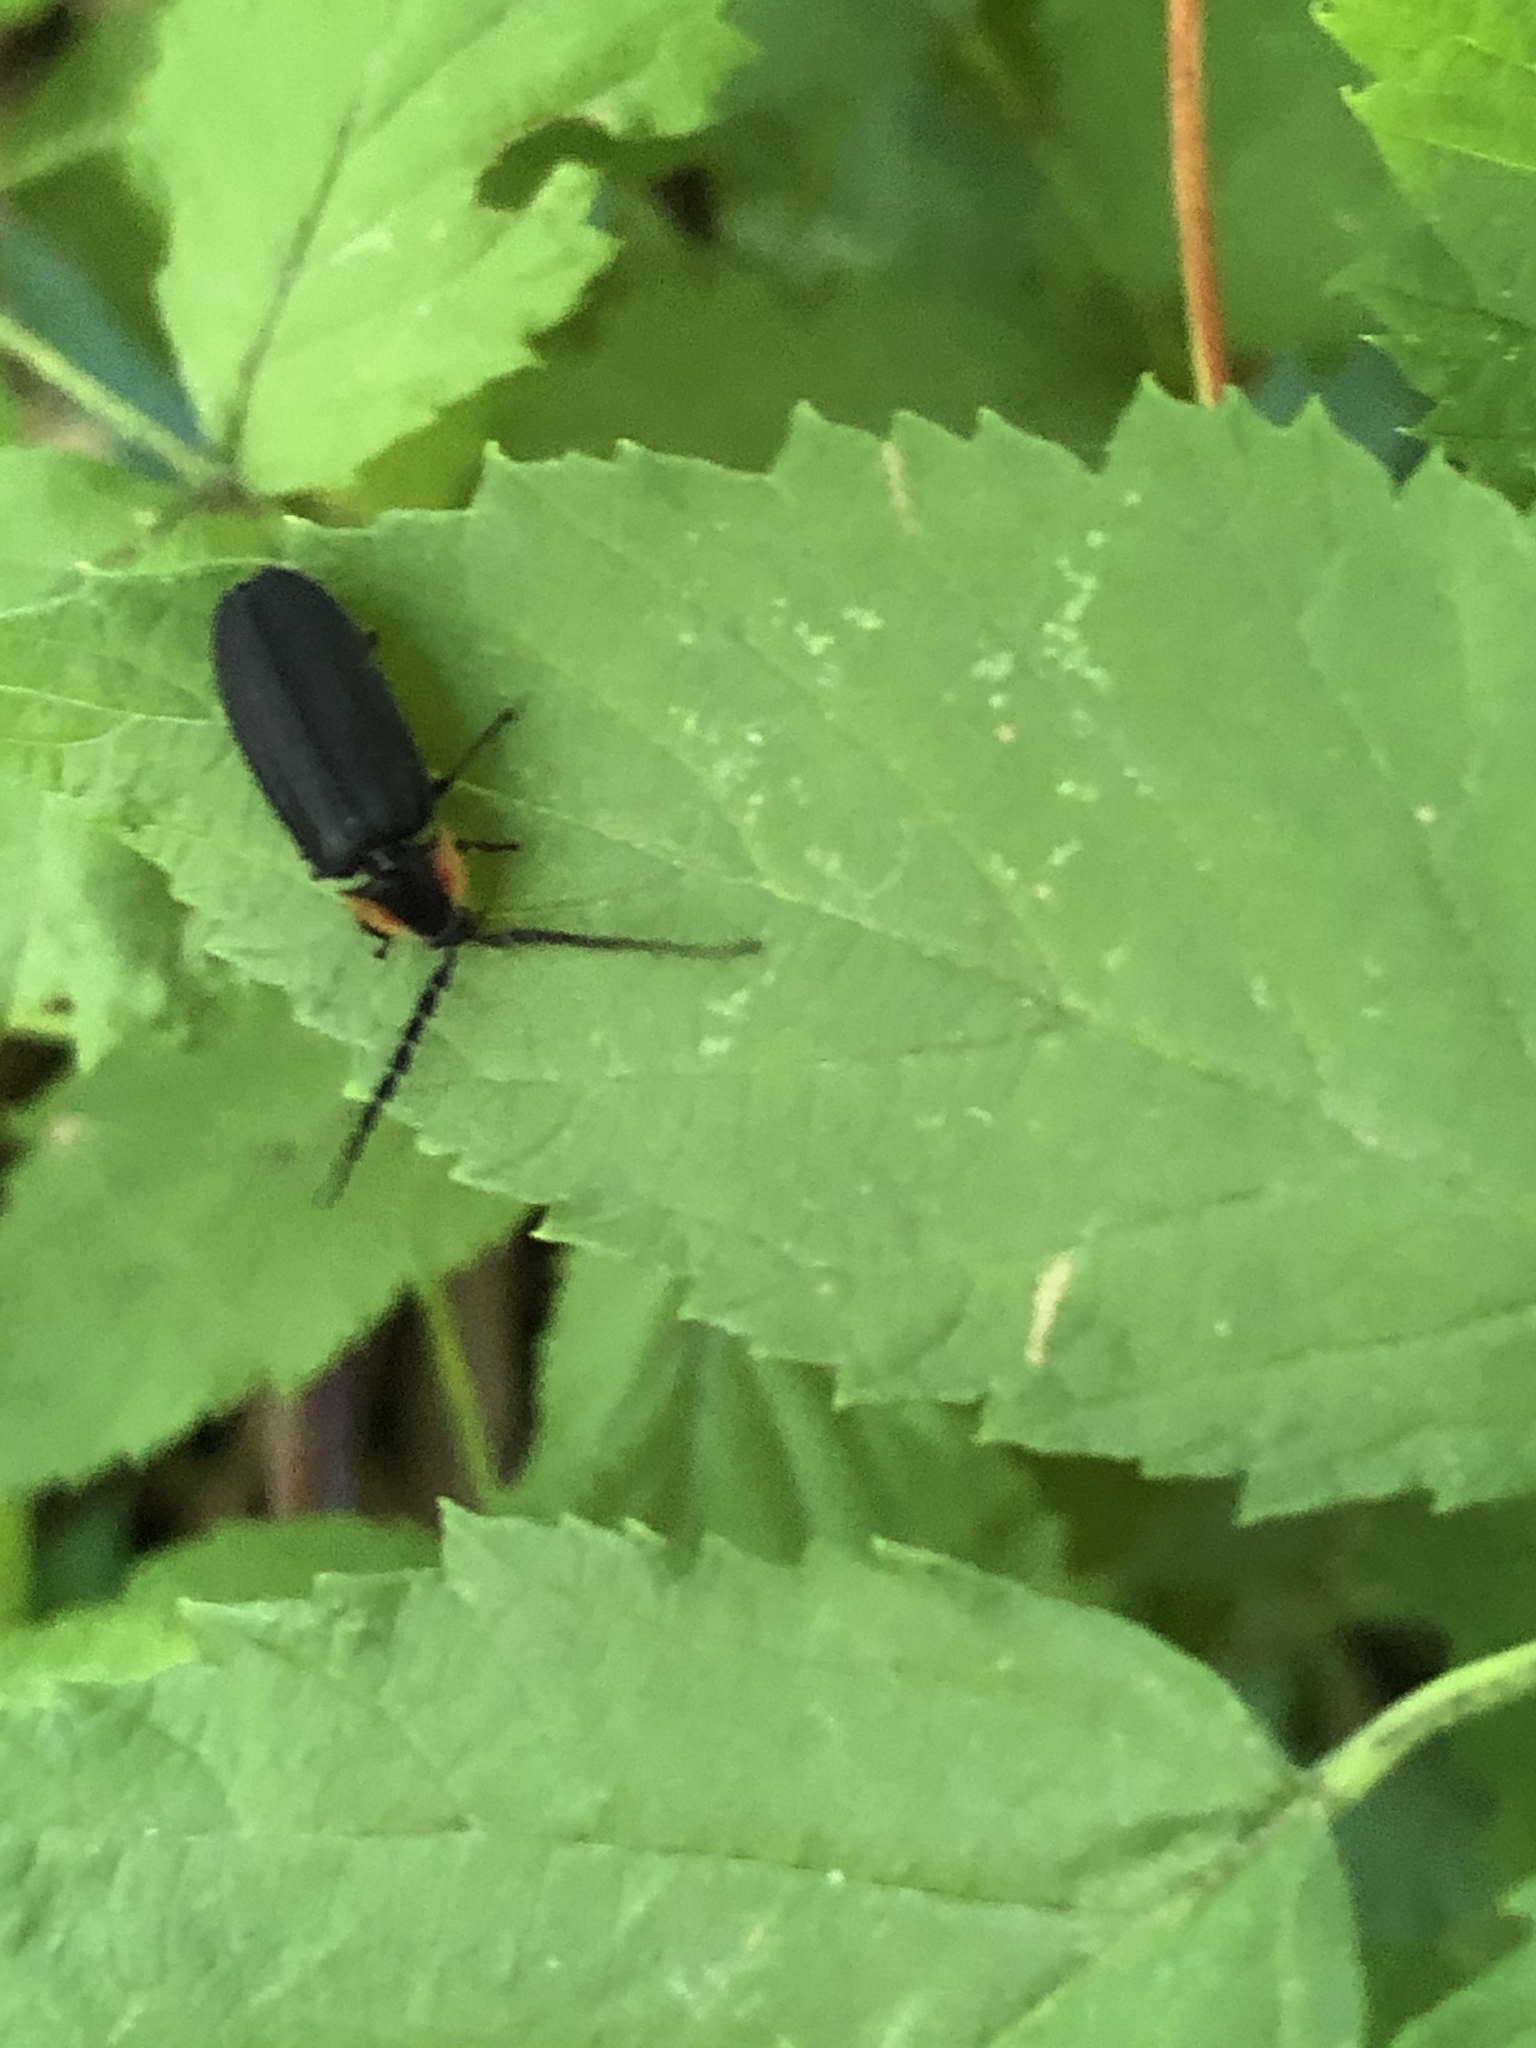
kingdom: Animalia
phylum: Arthropoda
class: Insecta
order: Coleoptera
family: Lampyridae
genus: Lucidota
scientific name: Lucidota atra
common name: Black firefly
